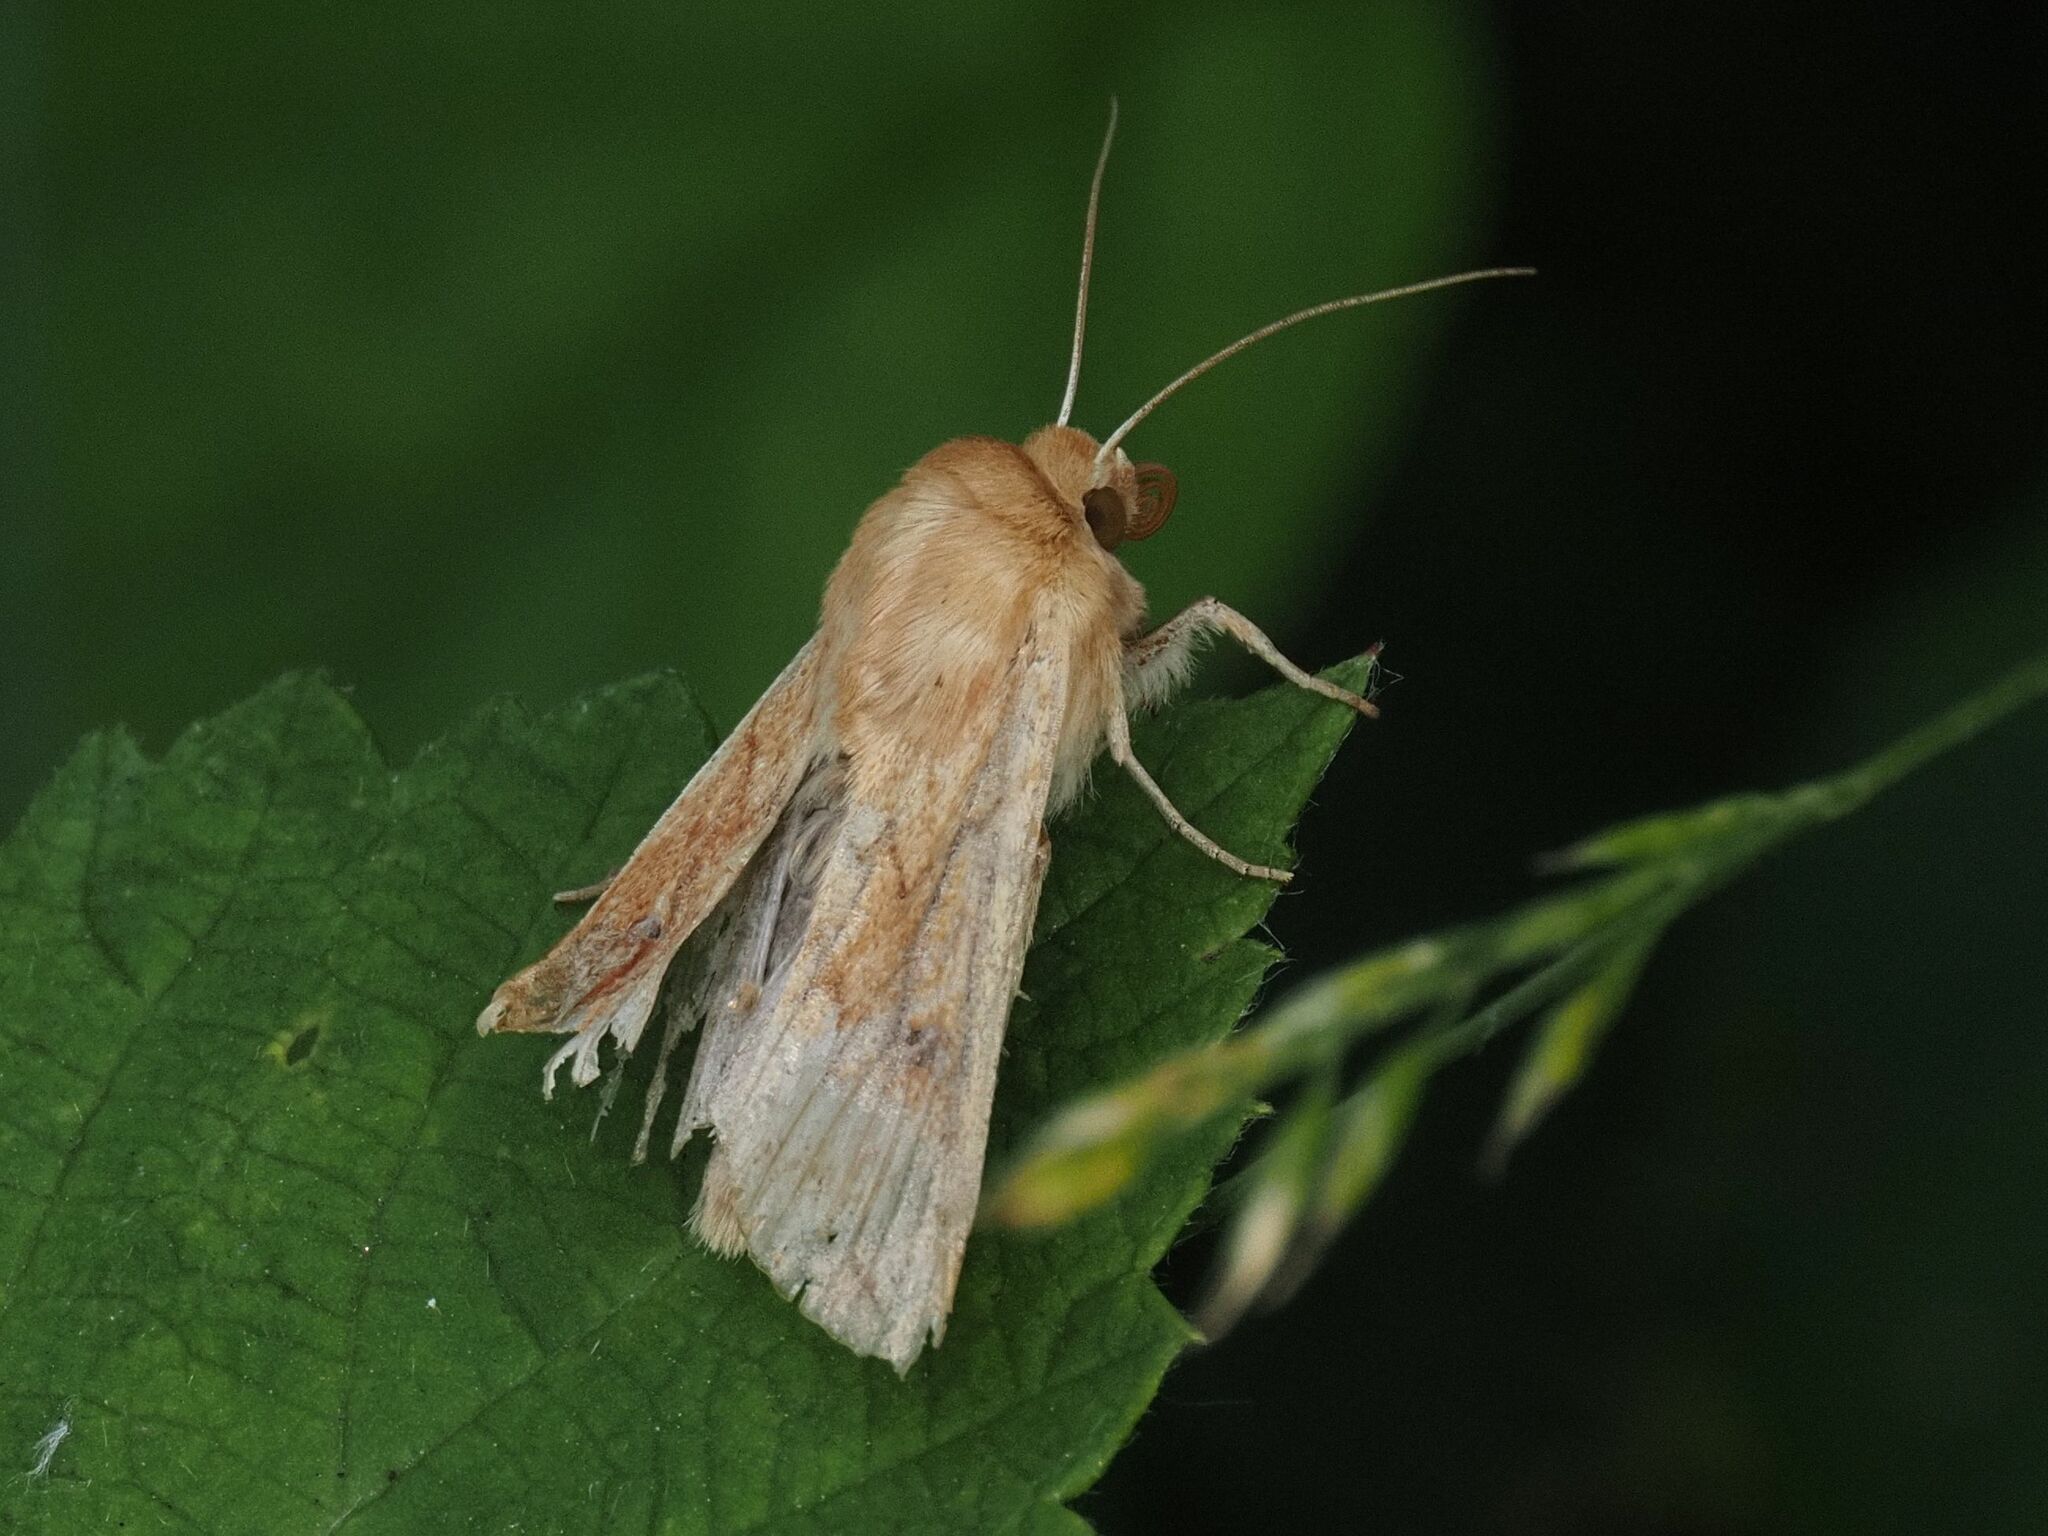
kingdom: Animalia
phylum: Arthropoda
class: Insecta
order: Lepidoptera
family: Noctuidae
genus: Mythimna
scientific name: Mythimna vitellina
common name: Delicate
